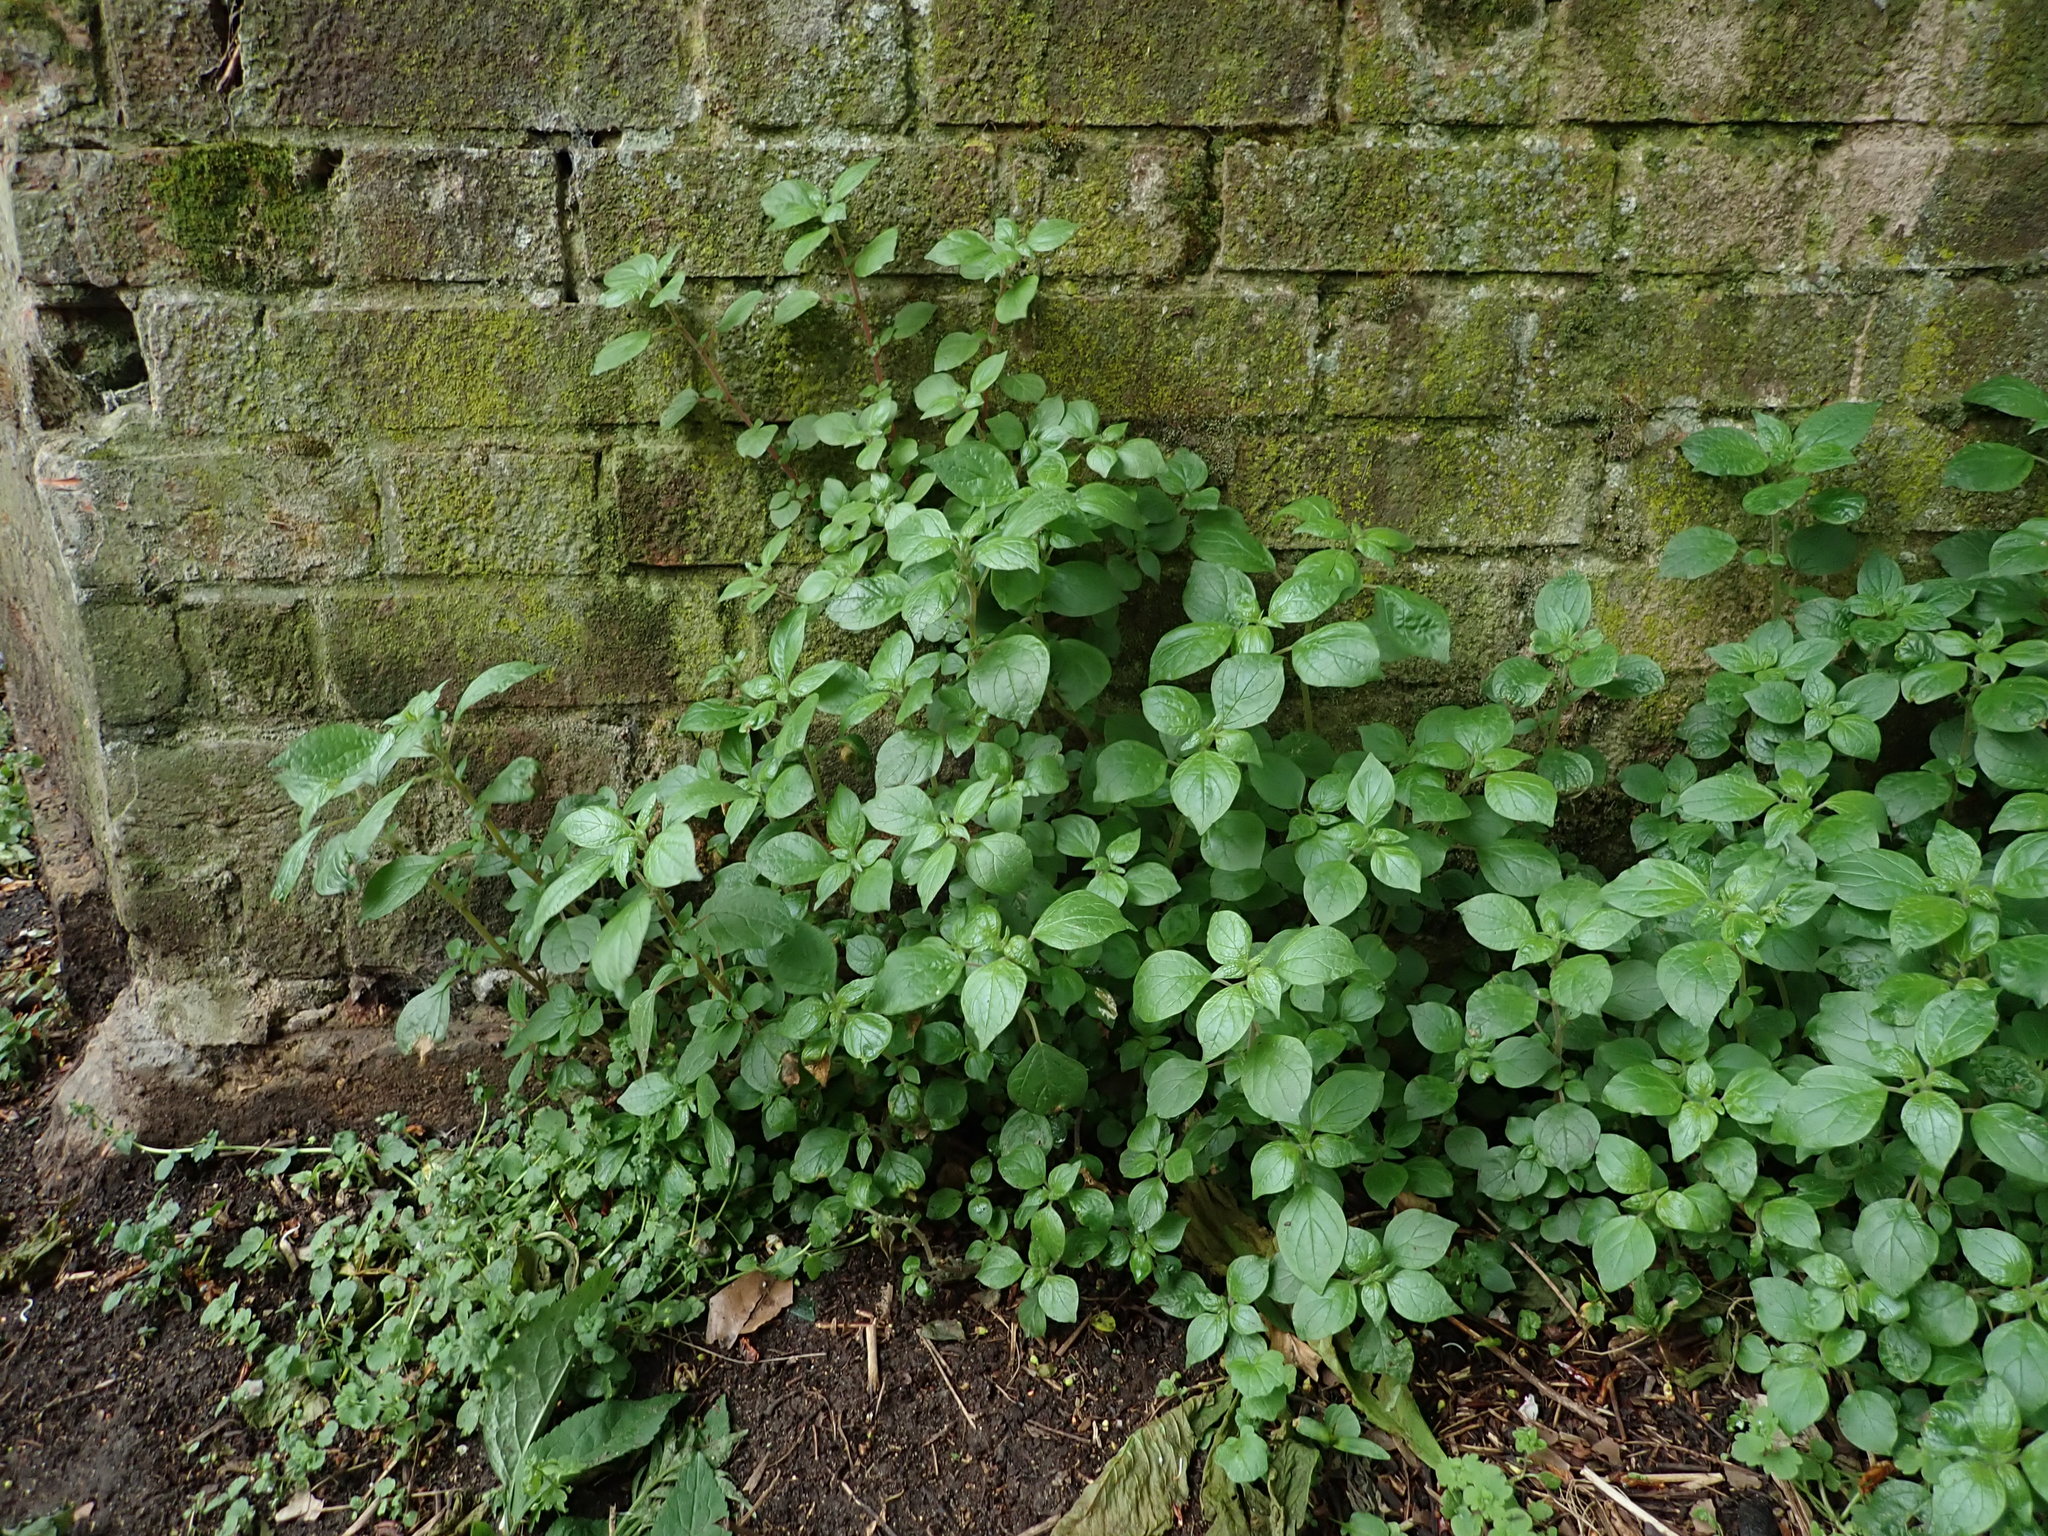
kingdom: Plantae
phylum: Tracheophyta
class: Magnoliopsida
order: Rosales
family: Urticaceae
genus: Parietaria
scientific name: Parietaria judaica
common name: Pellitory-of-the-wall
